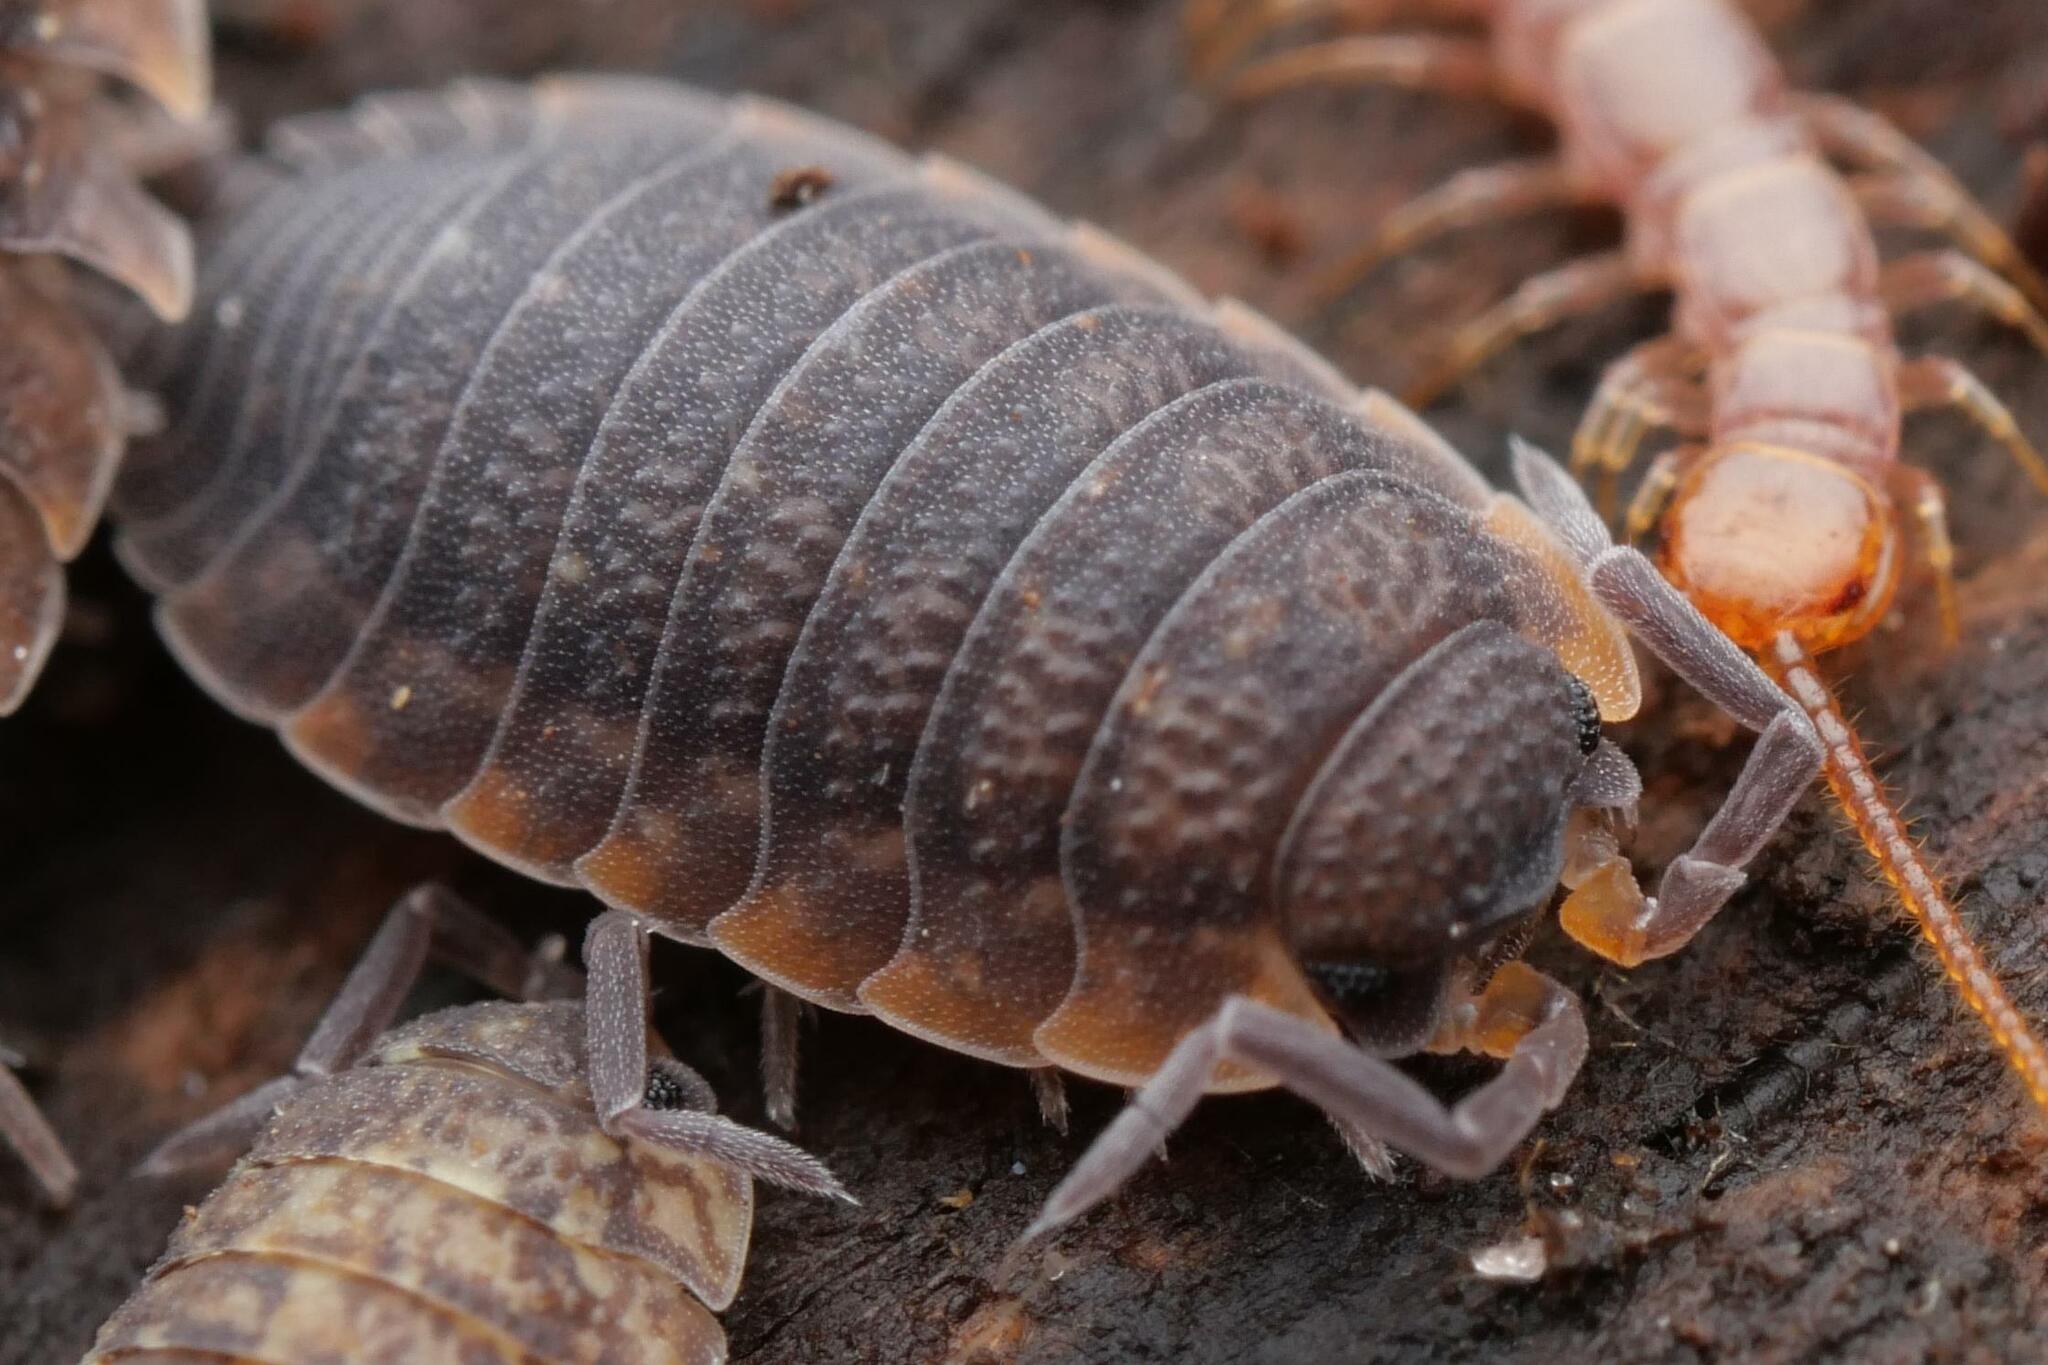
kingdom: Animalia
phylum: Arthropoda
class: Malacostraca
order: Isopoda
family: Porcellionidae
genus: Porcellio
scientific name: Porcellio scaber
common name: Common rough woodlouse
